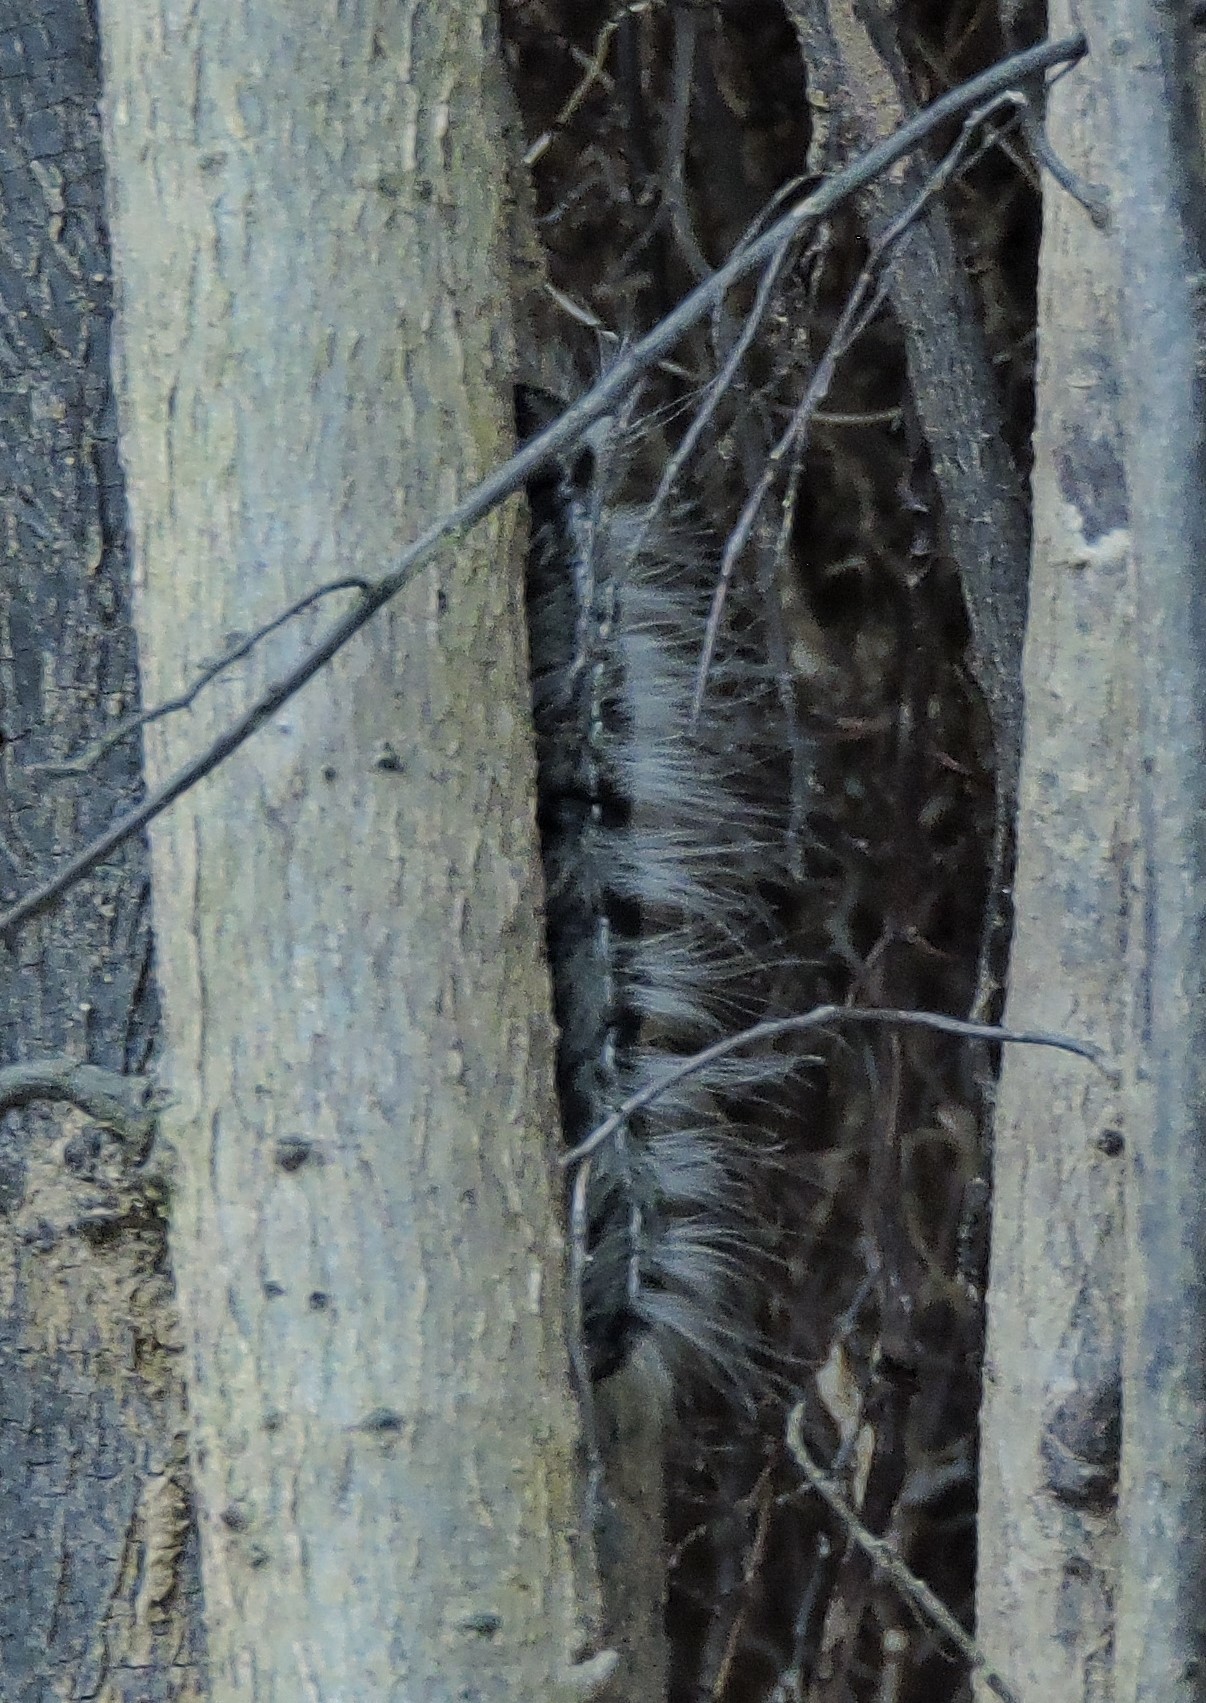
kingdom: Animalia
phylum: Arthropoda
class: Insecta
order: Lepidoptera
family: Notodontidae
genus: Datana
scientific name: Datana integerrima
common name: Walnut caterpillar
